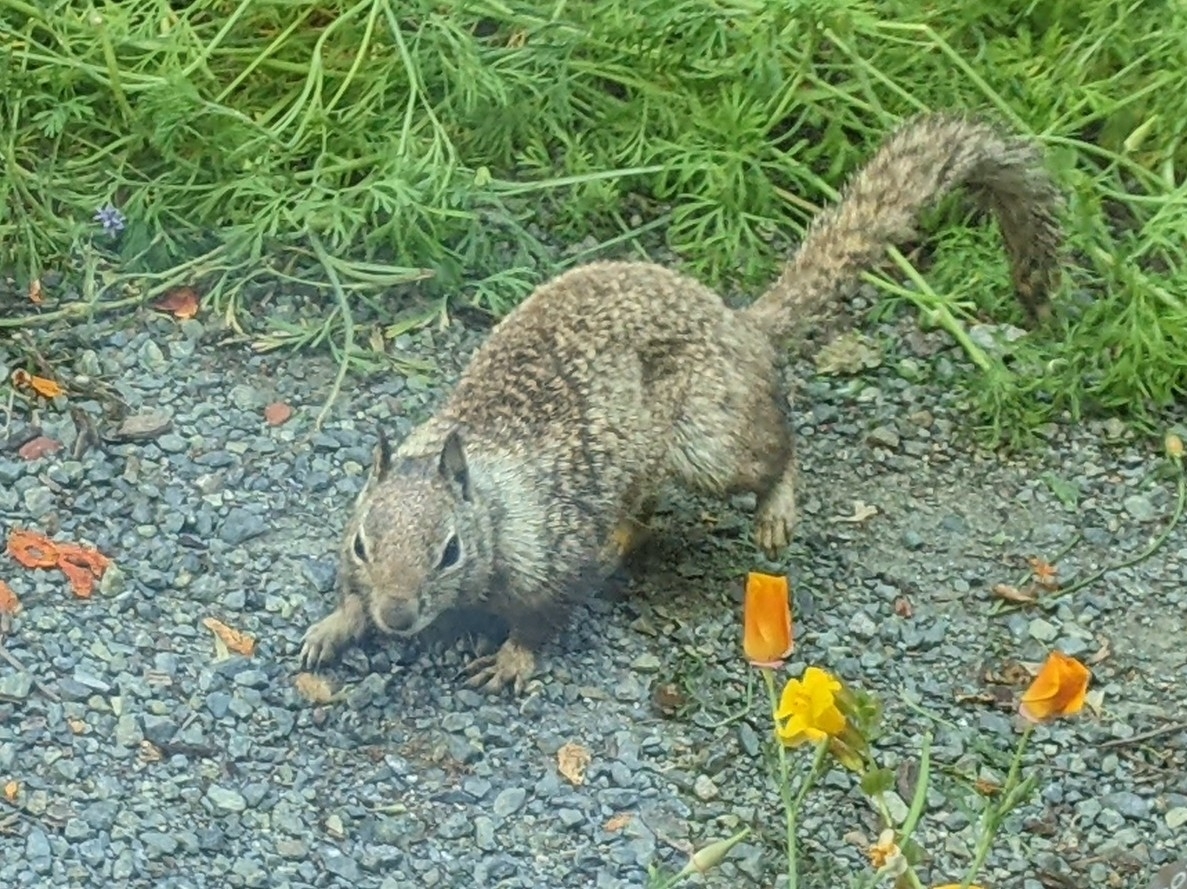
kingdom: Animalia
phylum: Chordata
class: Mammalia
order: Rodentia
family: Sciuridae
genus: Otospermophilus
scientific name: Otospermophilus beecheyi
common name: California ground squirrel
